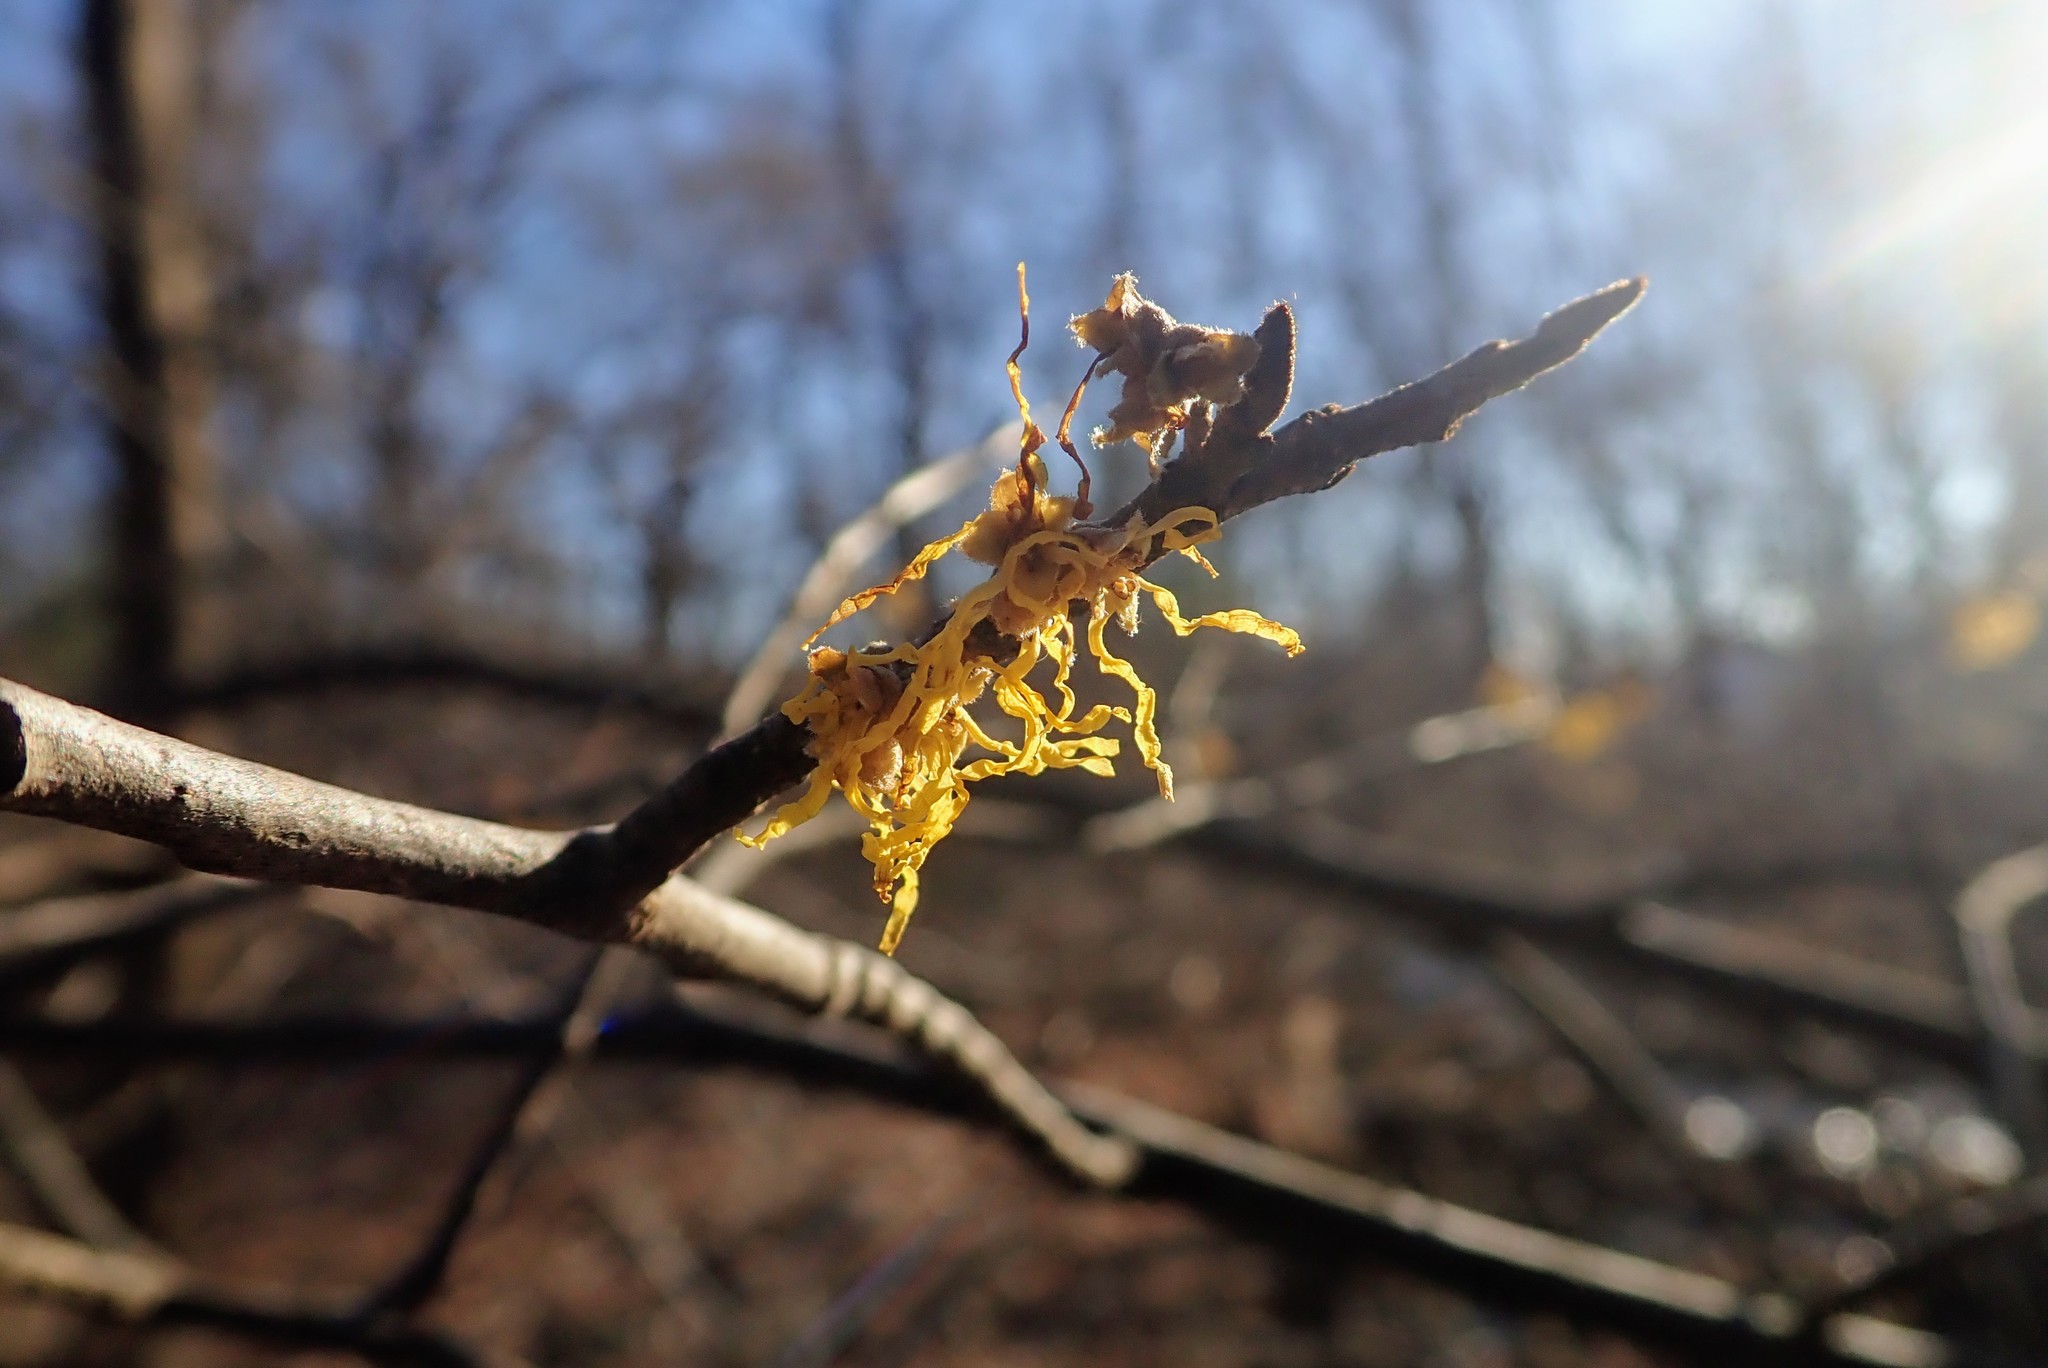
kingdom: Plantae
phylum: Tracheophyta
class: Magnoliopsida
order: Saxifragales
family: Hamamelidaceae
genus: Hamamelis
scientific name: Hamamelis virginiana
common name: Witch-hazel
